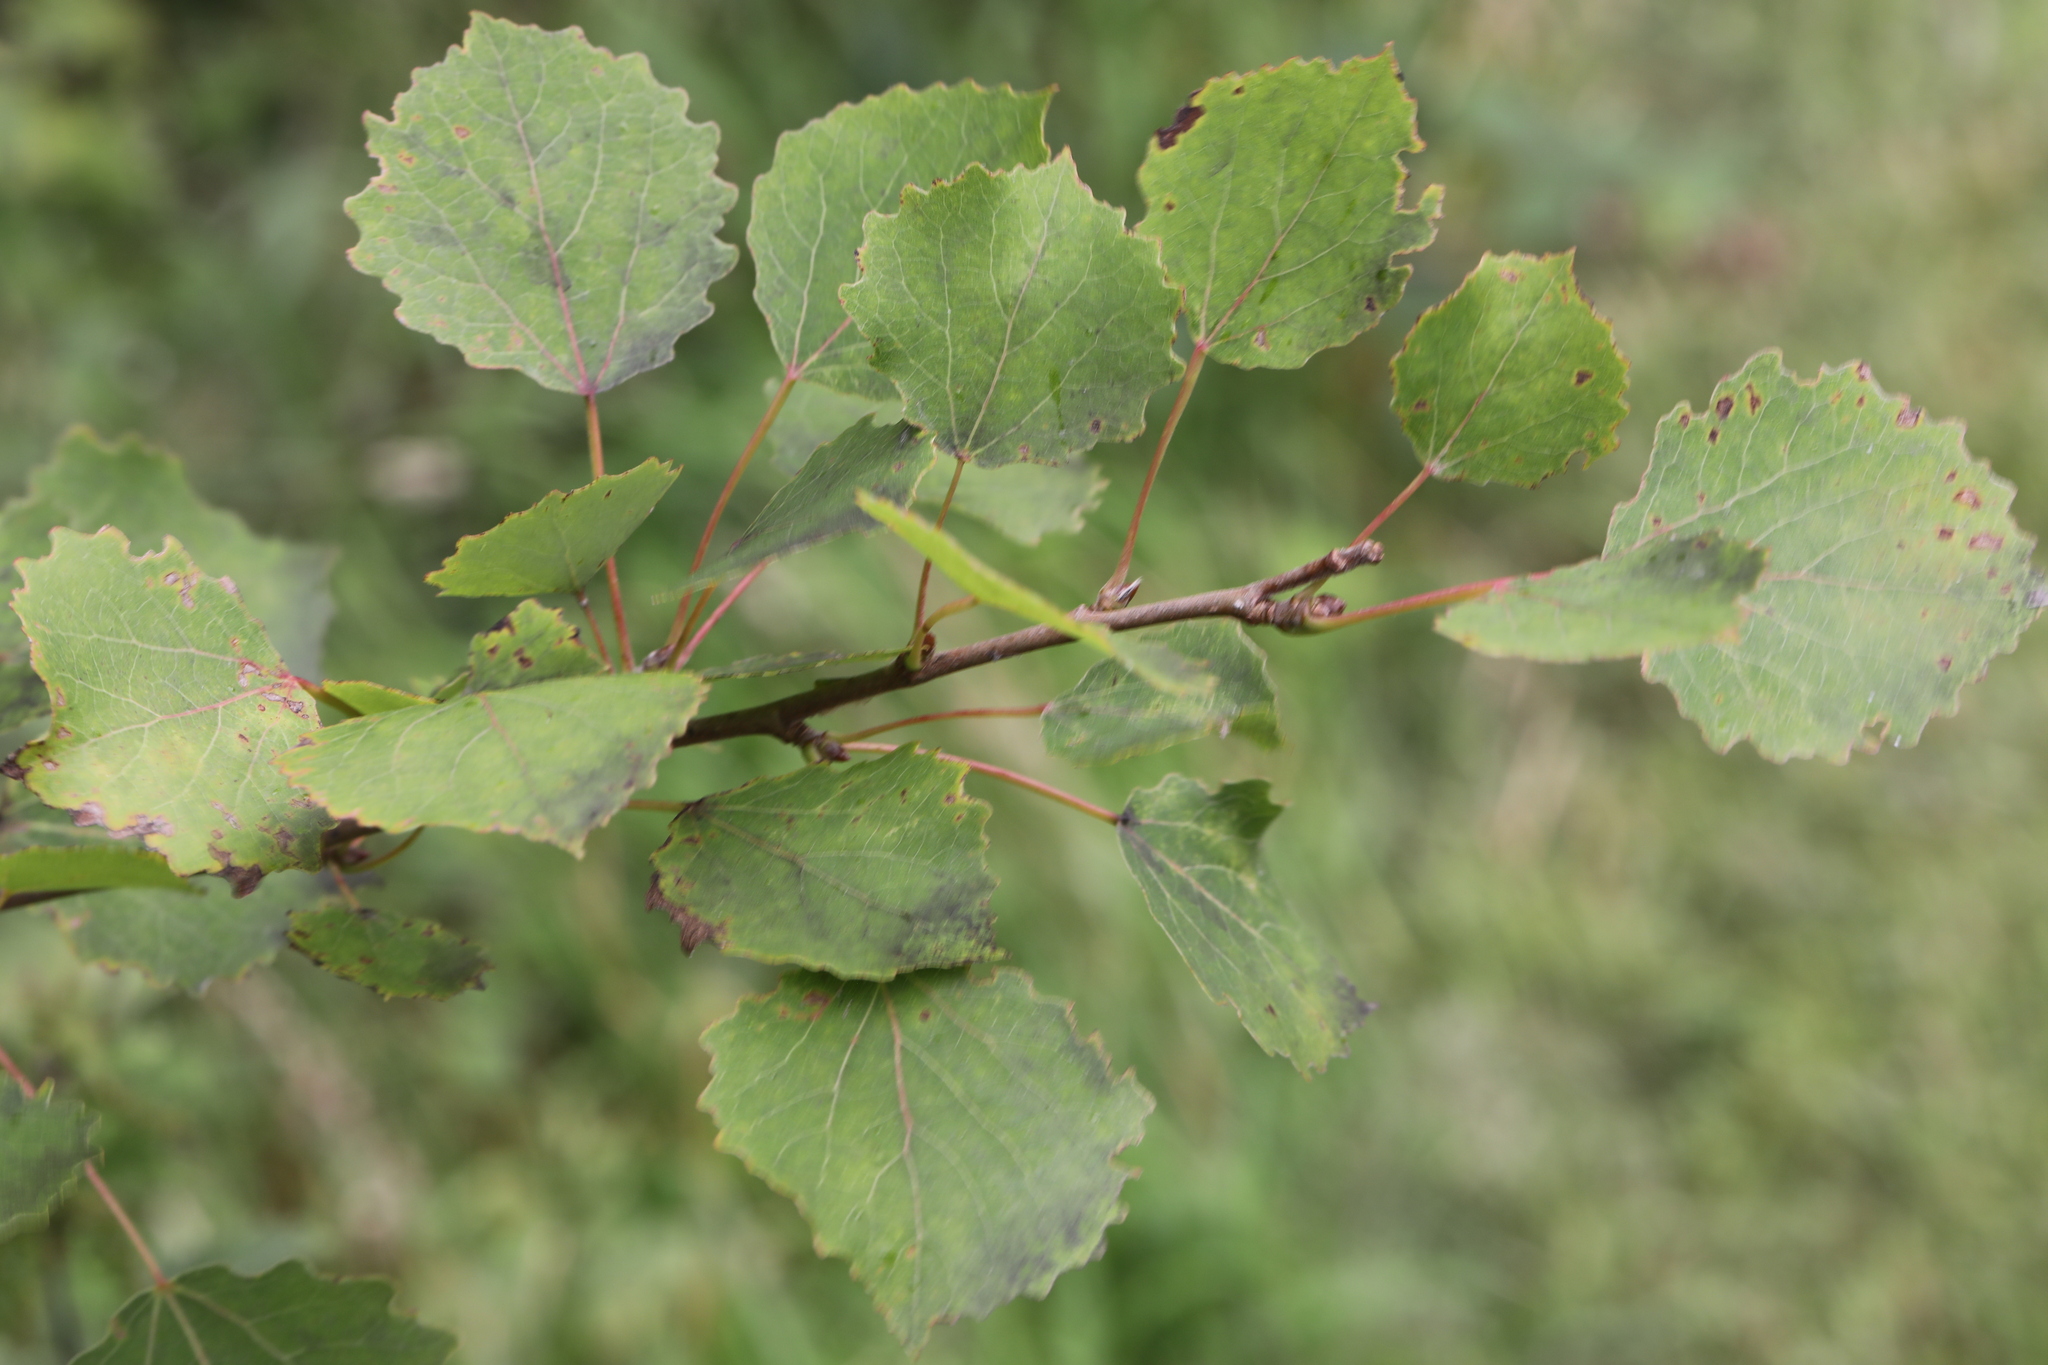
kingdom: Plantae
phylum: Tracheophyta
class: Magnoliopsida
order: Malpighiales
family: Salicaceae
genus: Populus
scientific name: Populus tremula
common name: European aspen
